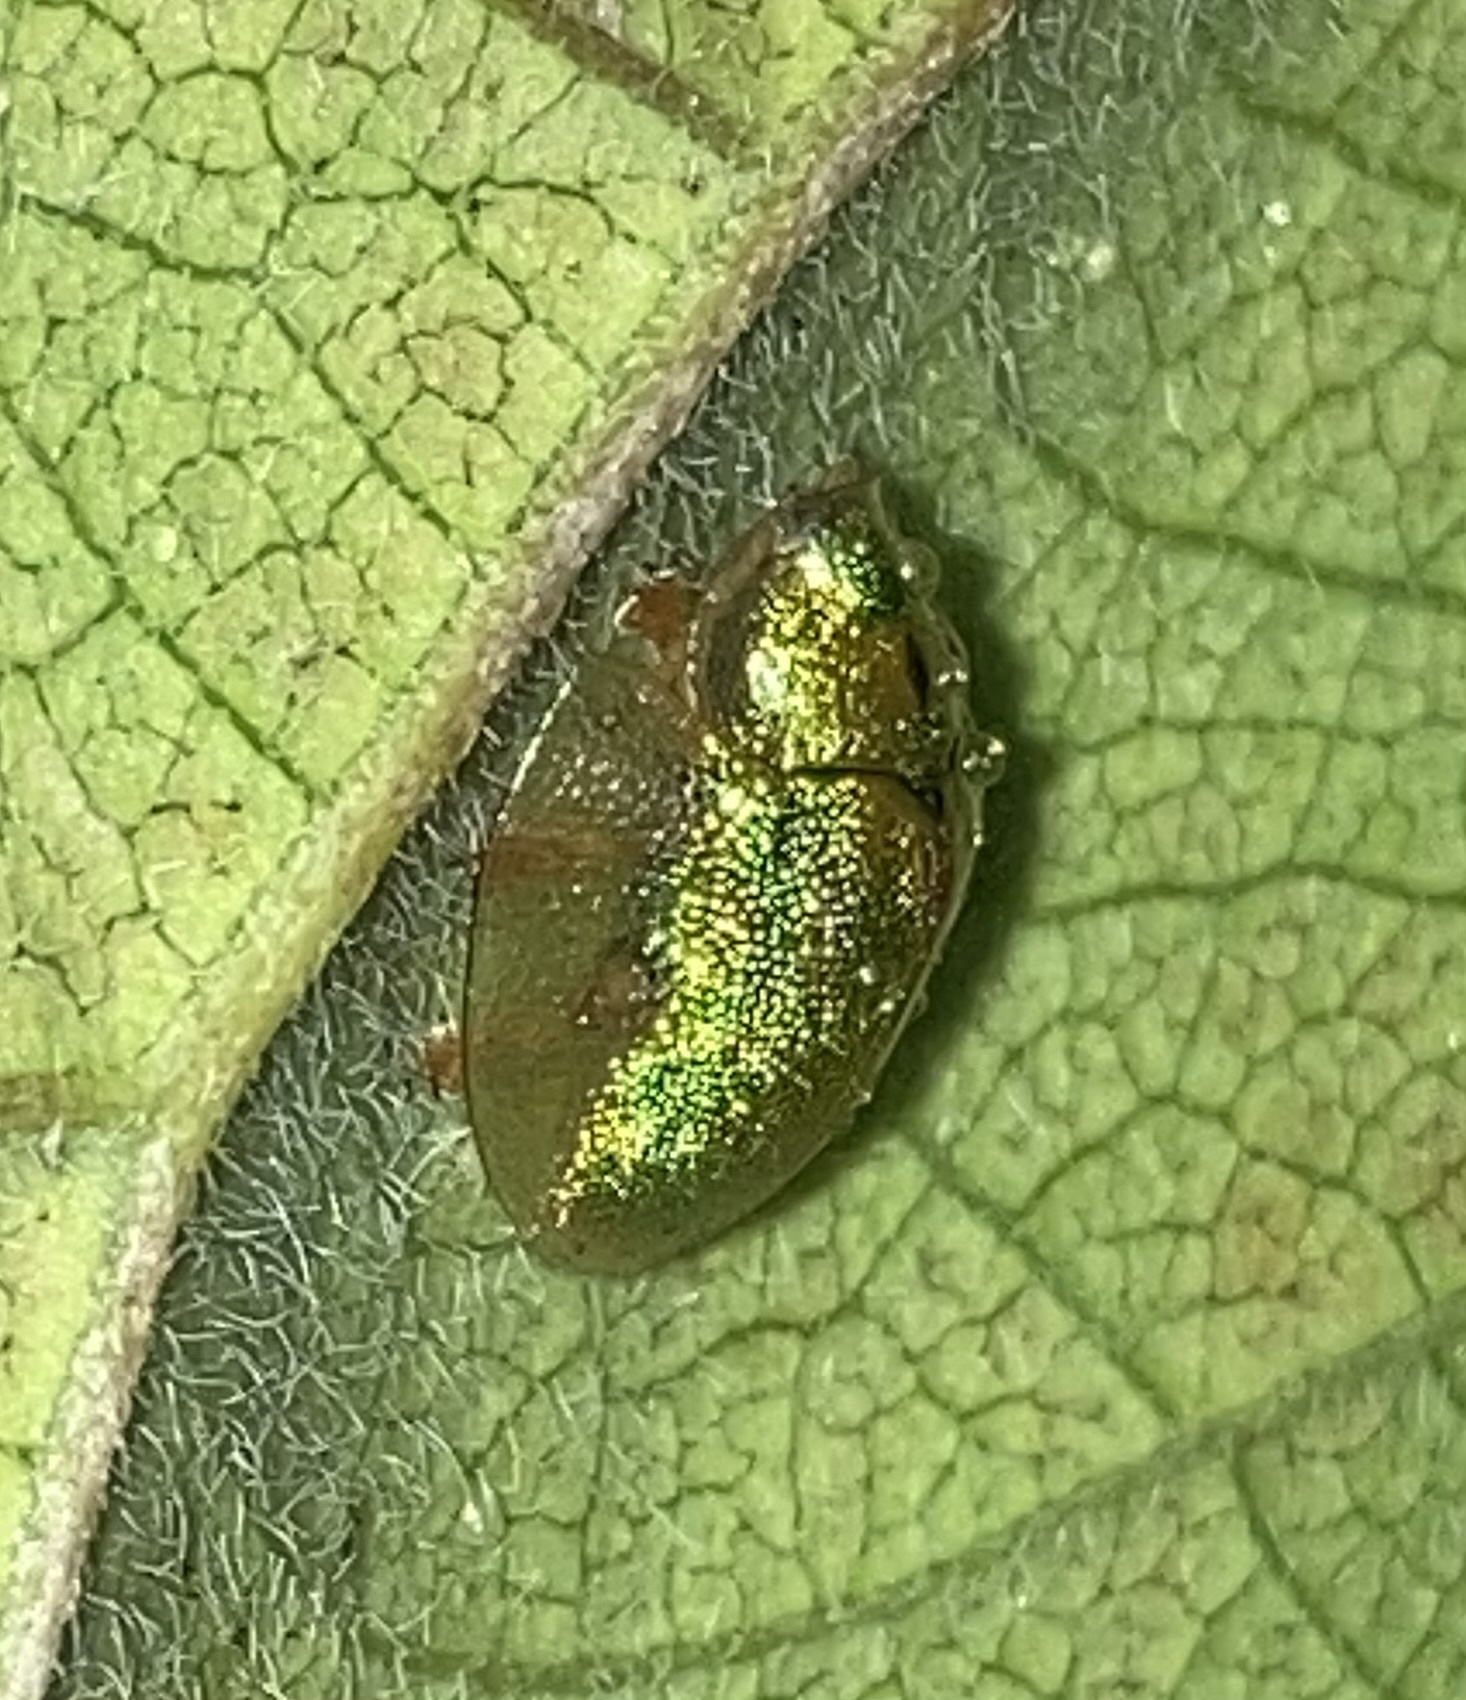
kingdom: Animalia
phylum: Arthropoda
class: Insecta
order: Coleoptera
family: Chrysomelidae
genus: Eurypepla
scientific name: Eurypepla calochroma
